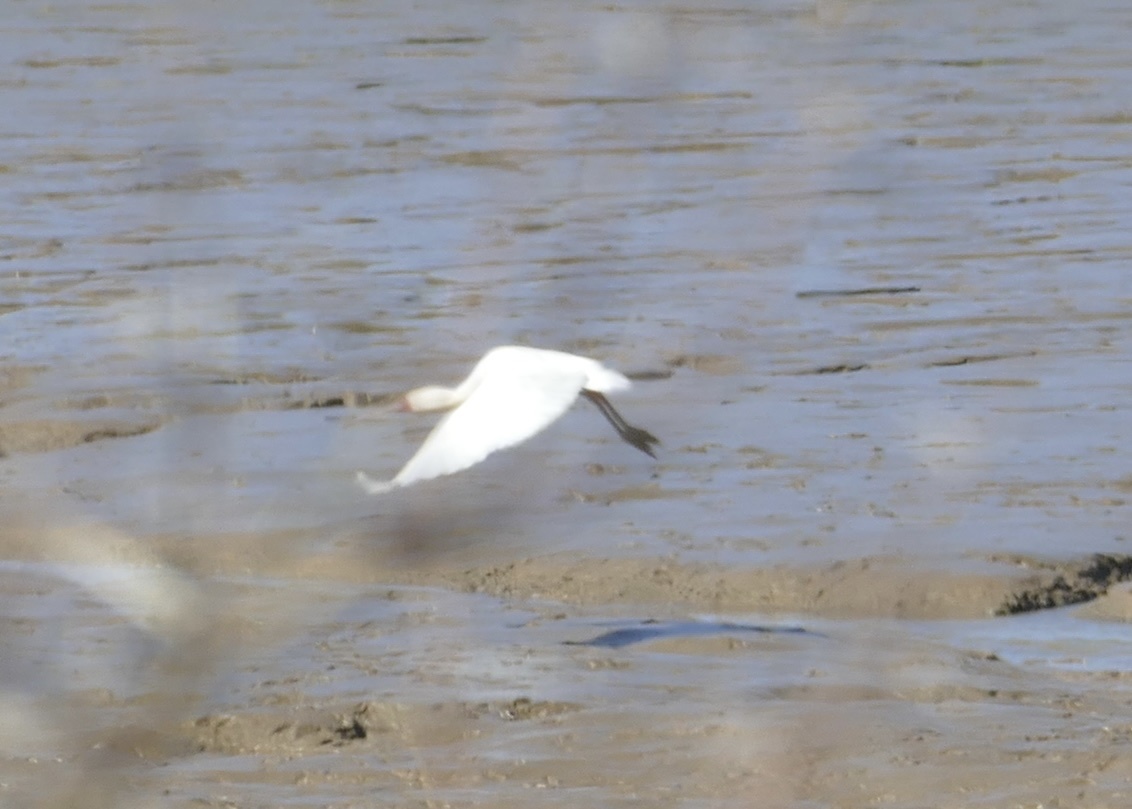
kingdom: Animalia
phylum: Chordata
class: Aves
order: Pelecaniformes
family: Threskiornithidae
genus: Platalea
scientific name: Platalea alba
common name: African spoonbill
